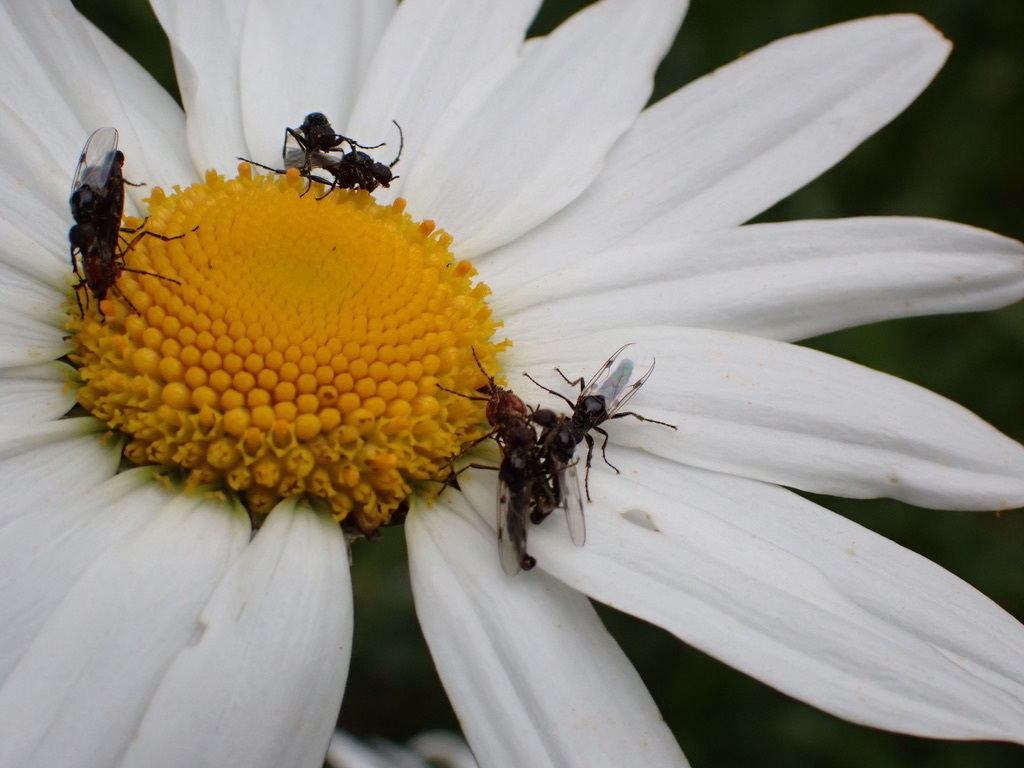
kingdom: Plantae
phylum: Tracheophyta
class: Magnoliopsida
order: Asterales
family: Asteraceae
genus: Leucanthemum
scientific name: Leucanthemum vulgare
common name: Oxeye daisy
